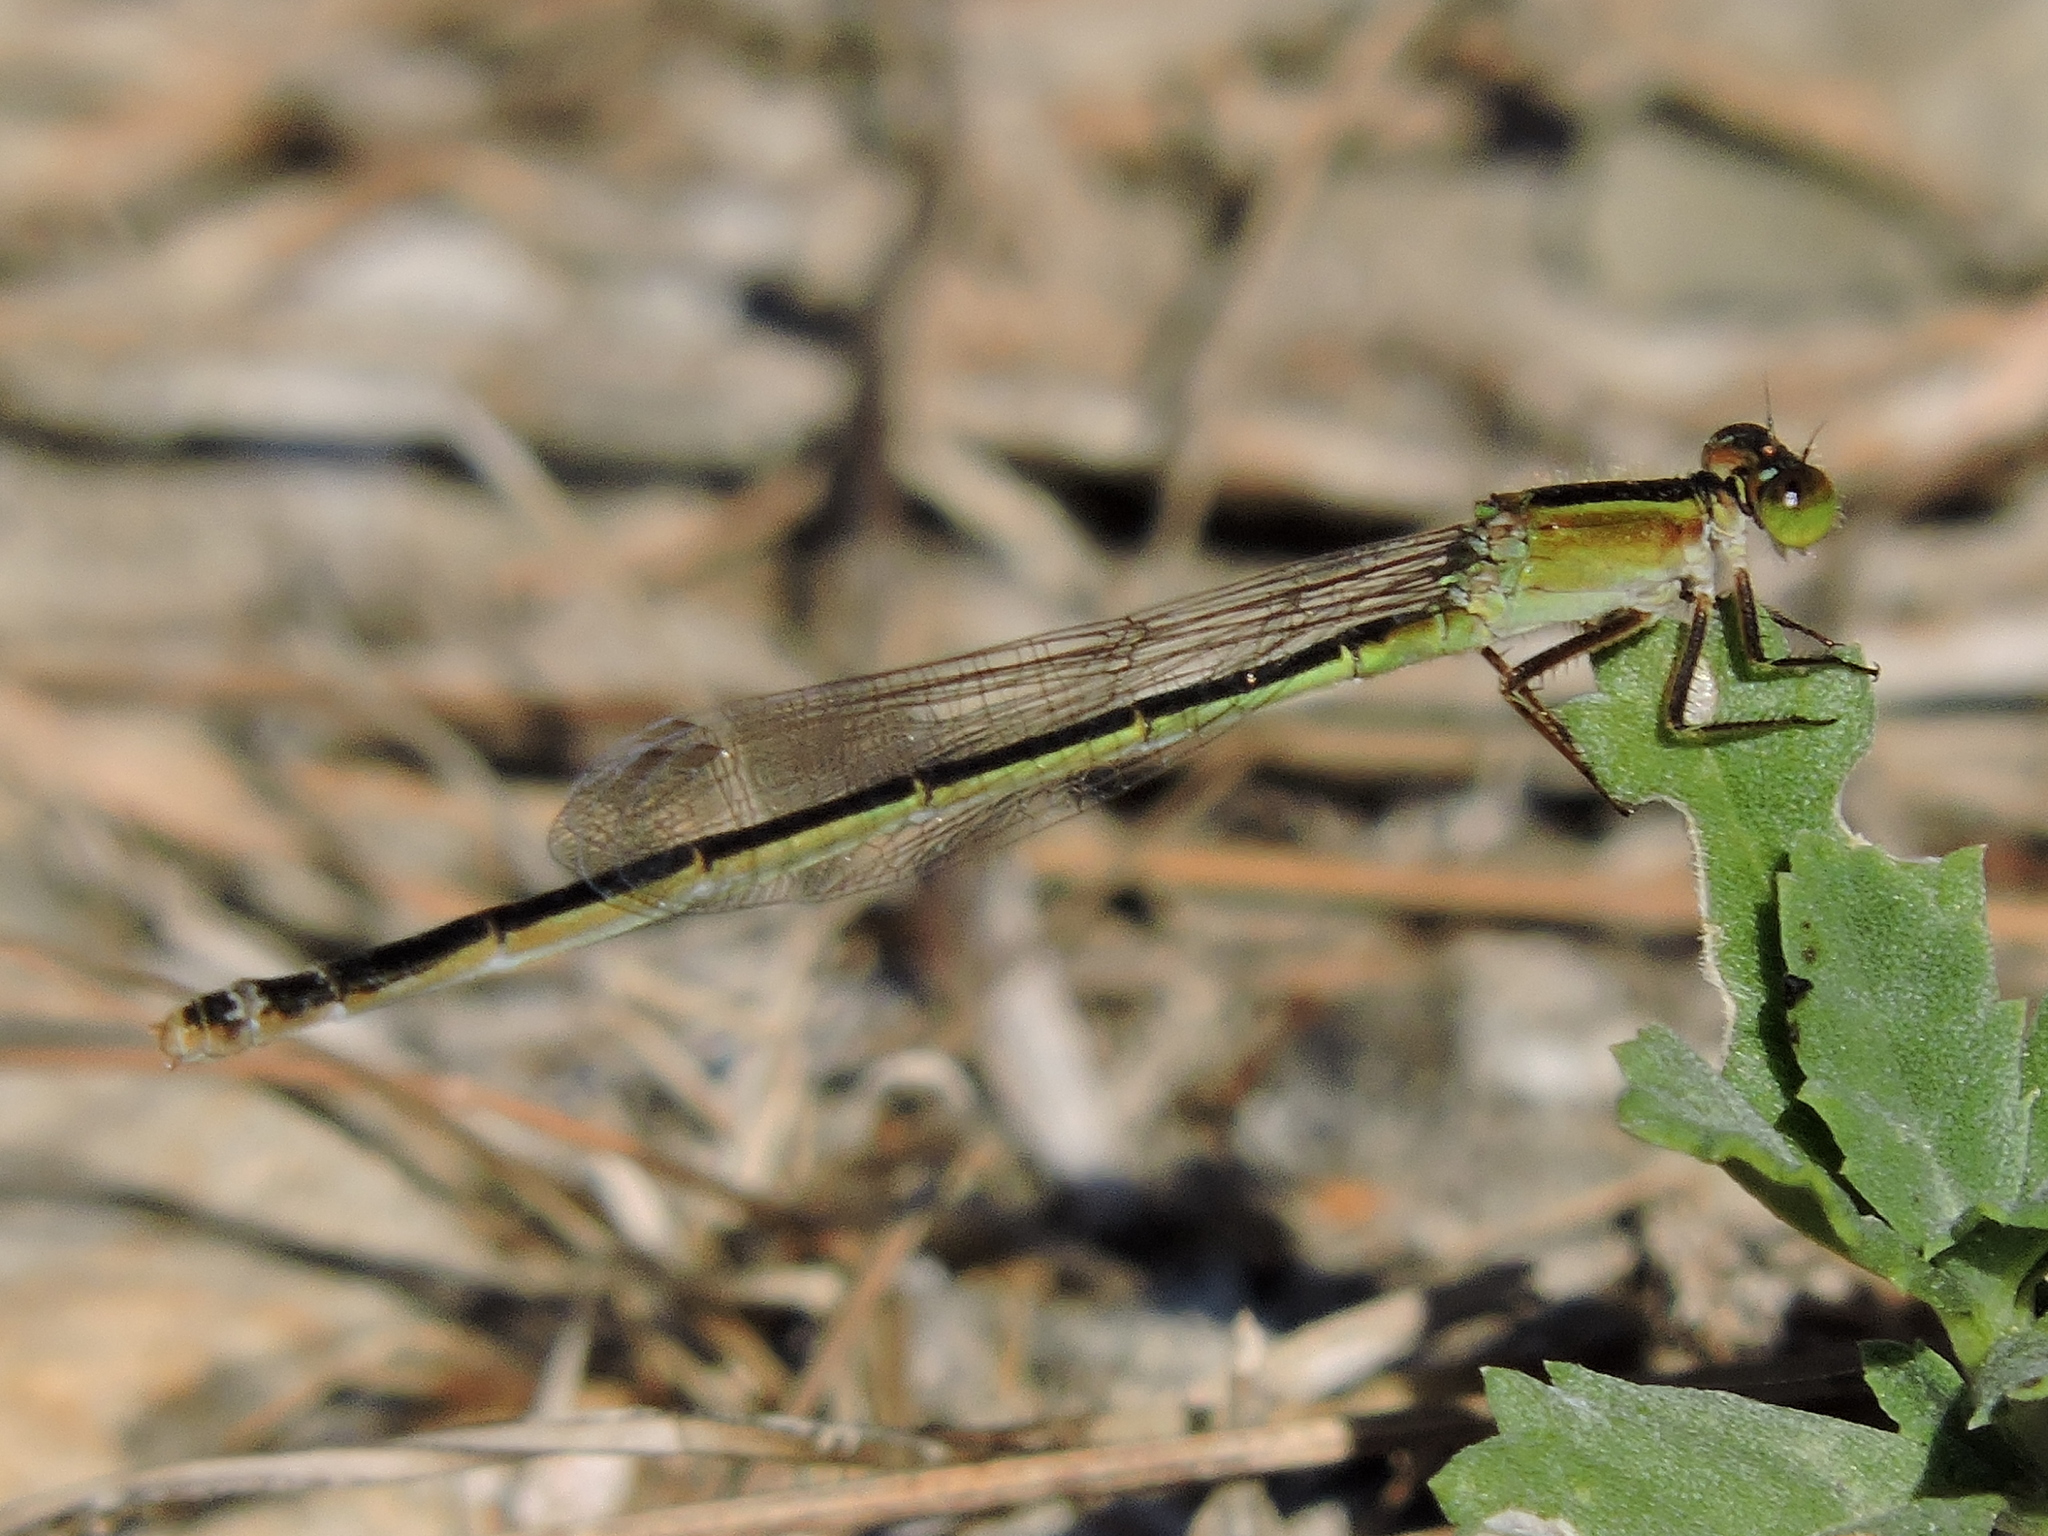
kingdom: Animalia
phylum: Arthropoda
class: Insecta
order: Odonata
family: Coenagrionidae
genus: Ischnura
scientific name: Ischnura ramburii
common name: Rambur's forktail
